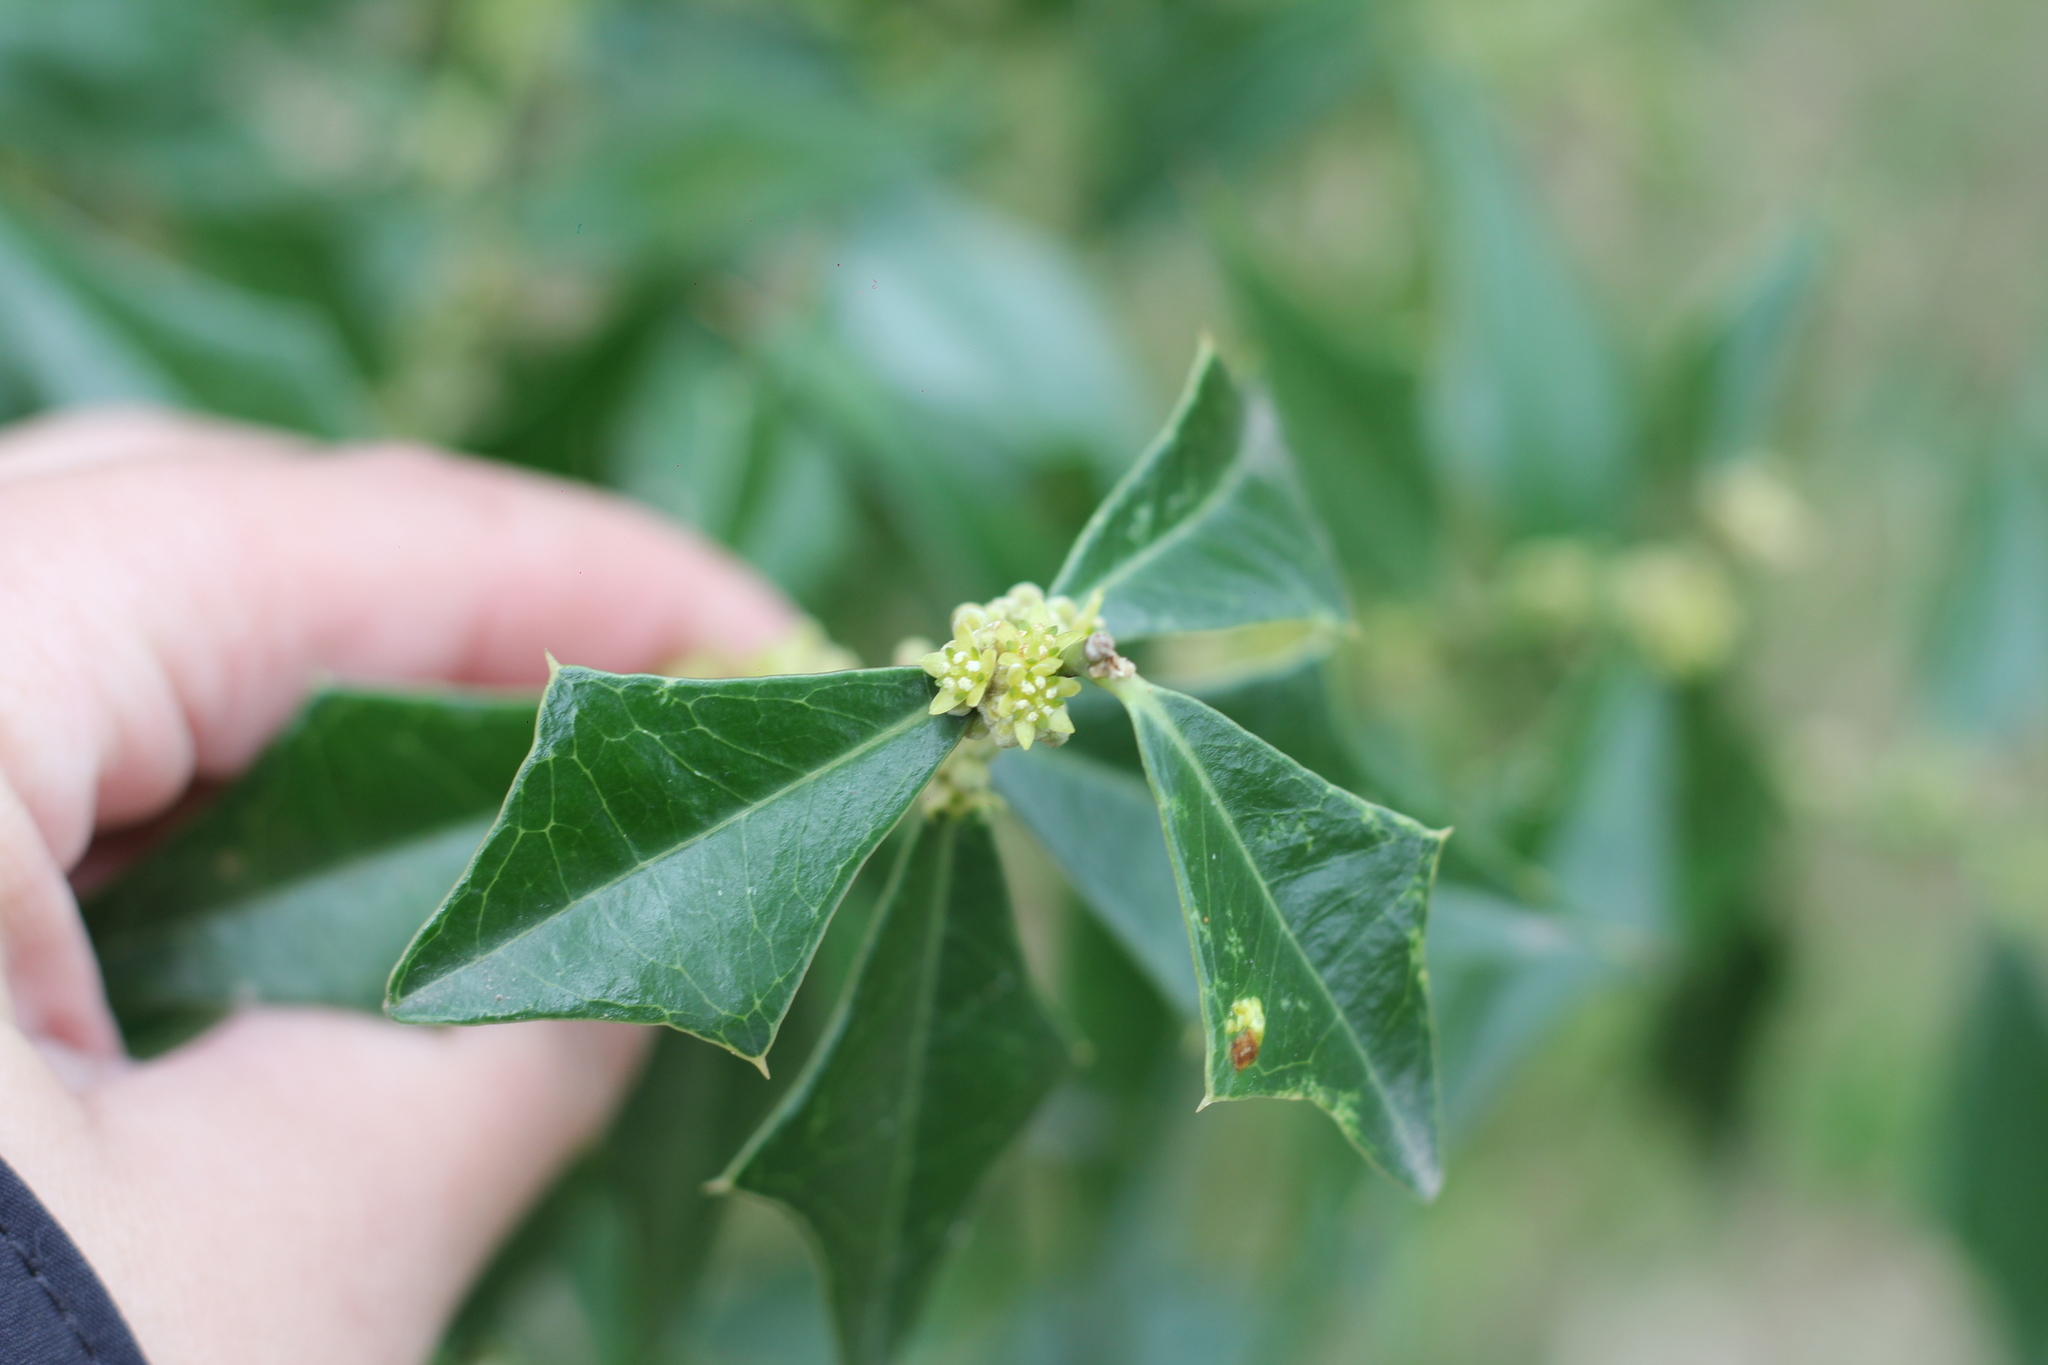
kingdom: Plantae
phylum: Tracheophyta
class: Magnoliopsida
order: Santalales
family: Cervantesiaceae
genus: Jodina
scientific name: Jodina rhombifolia
